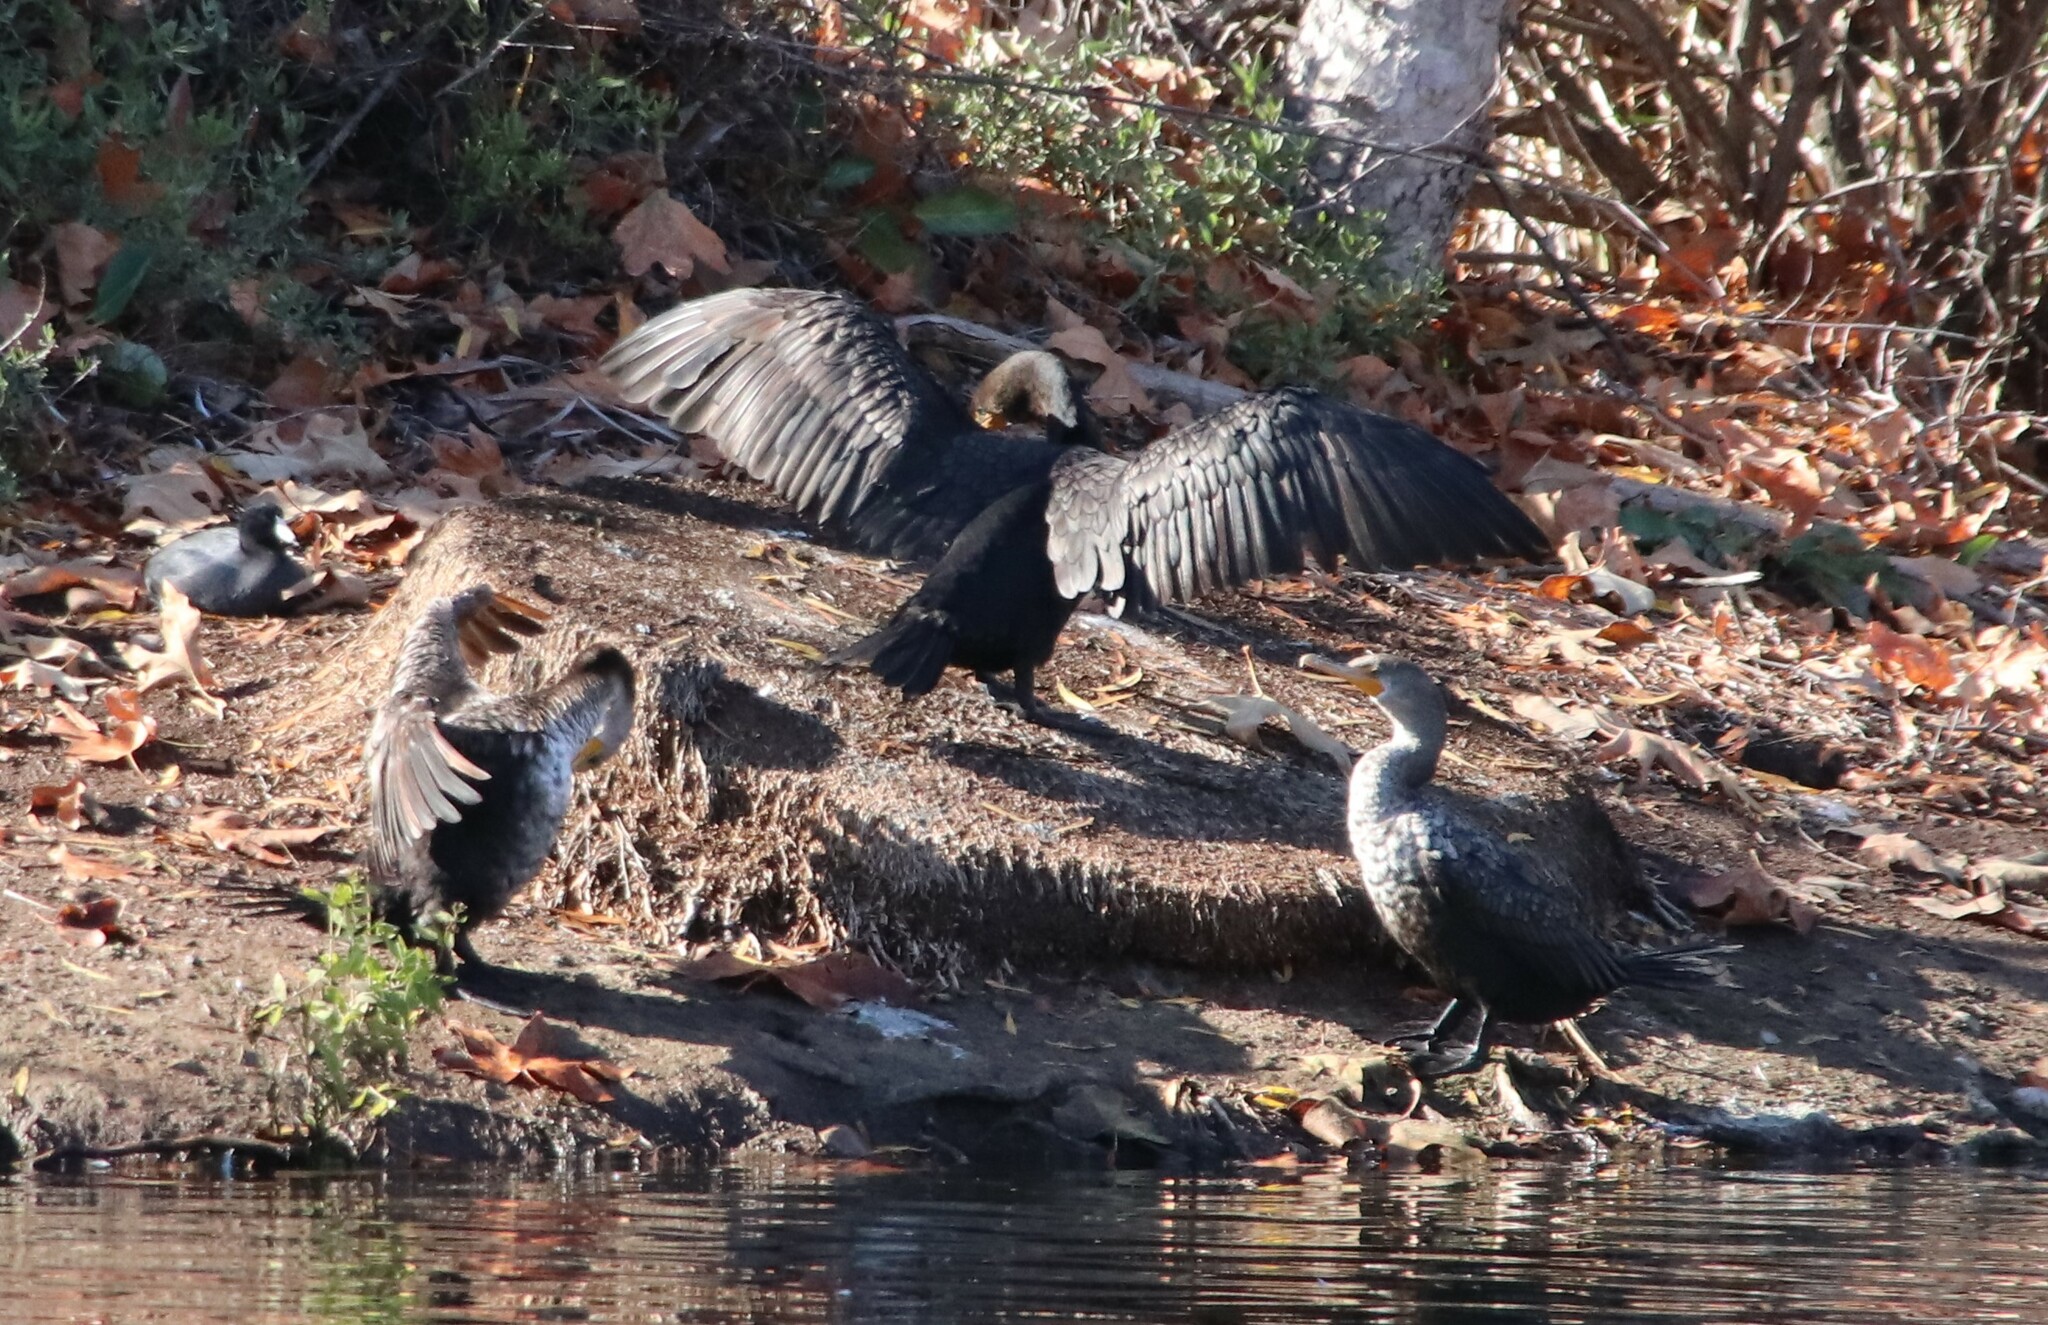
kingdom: Animalia
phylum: Chordata
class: Aves
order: Suliformes
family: Phalacrocoracidae
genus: Phalacrocorax
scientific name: Phalacrocorax auritus
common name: Double-crested cormorant
